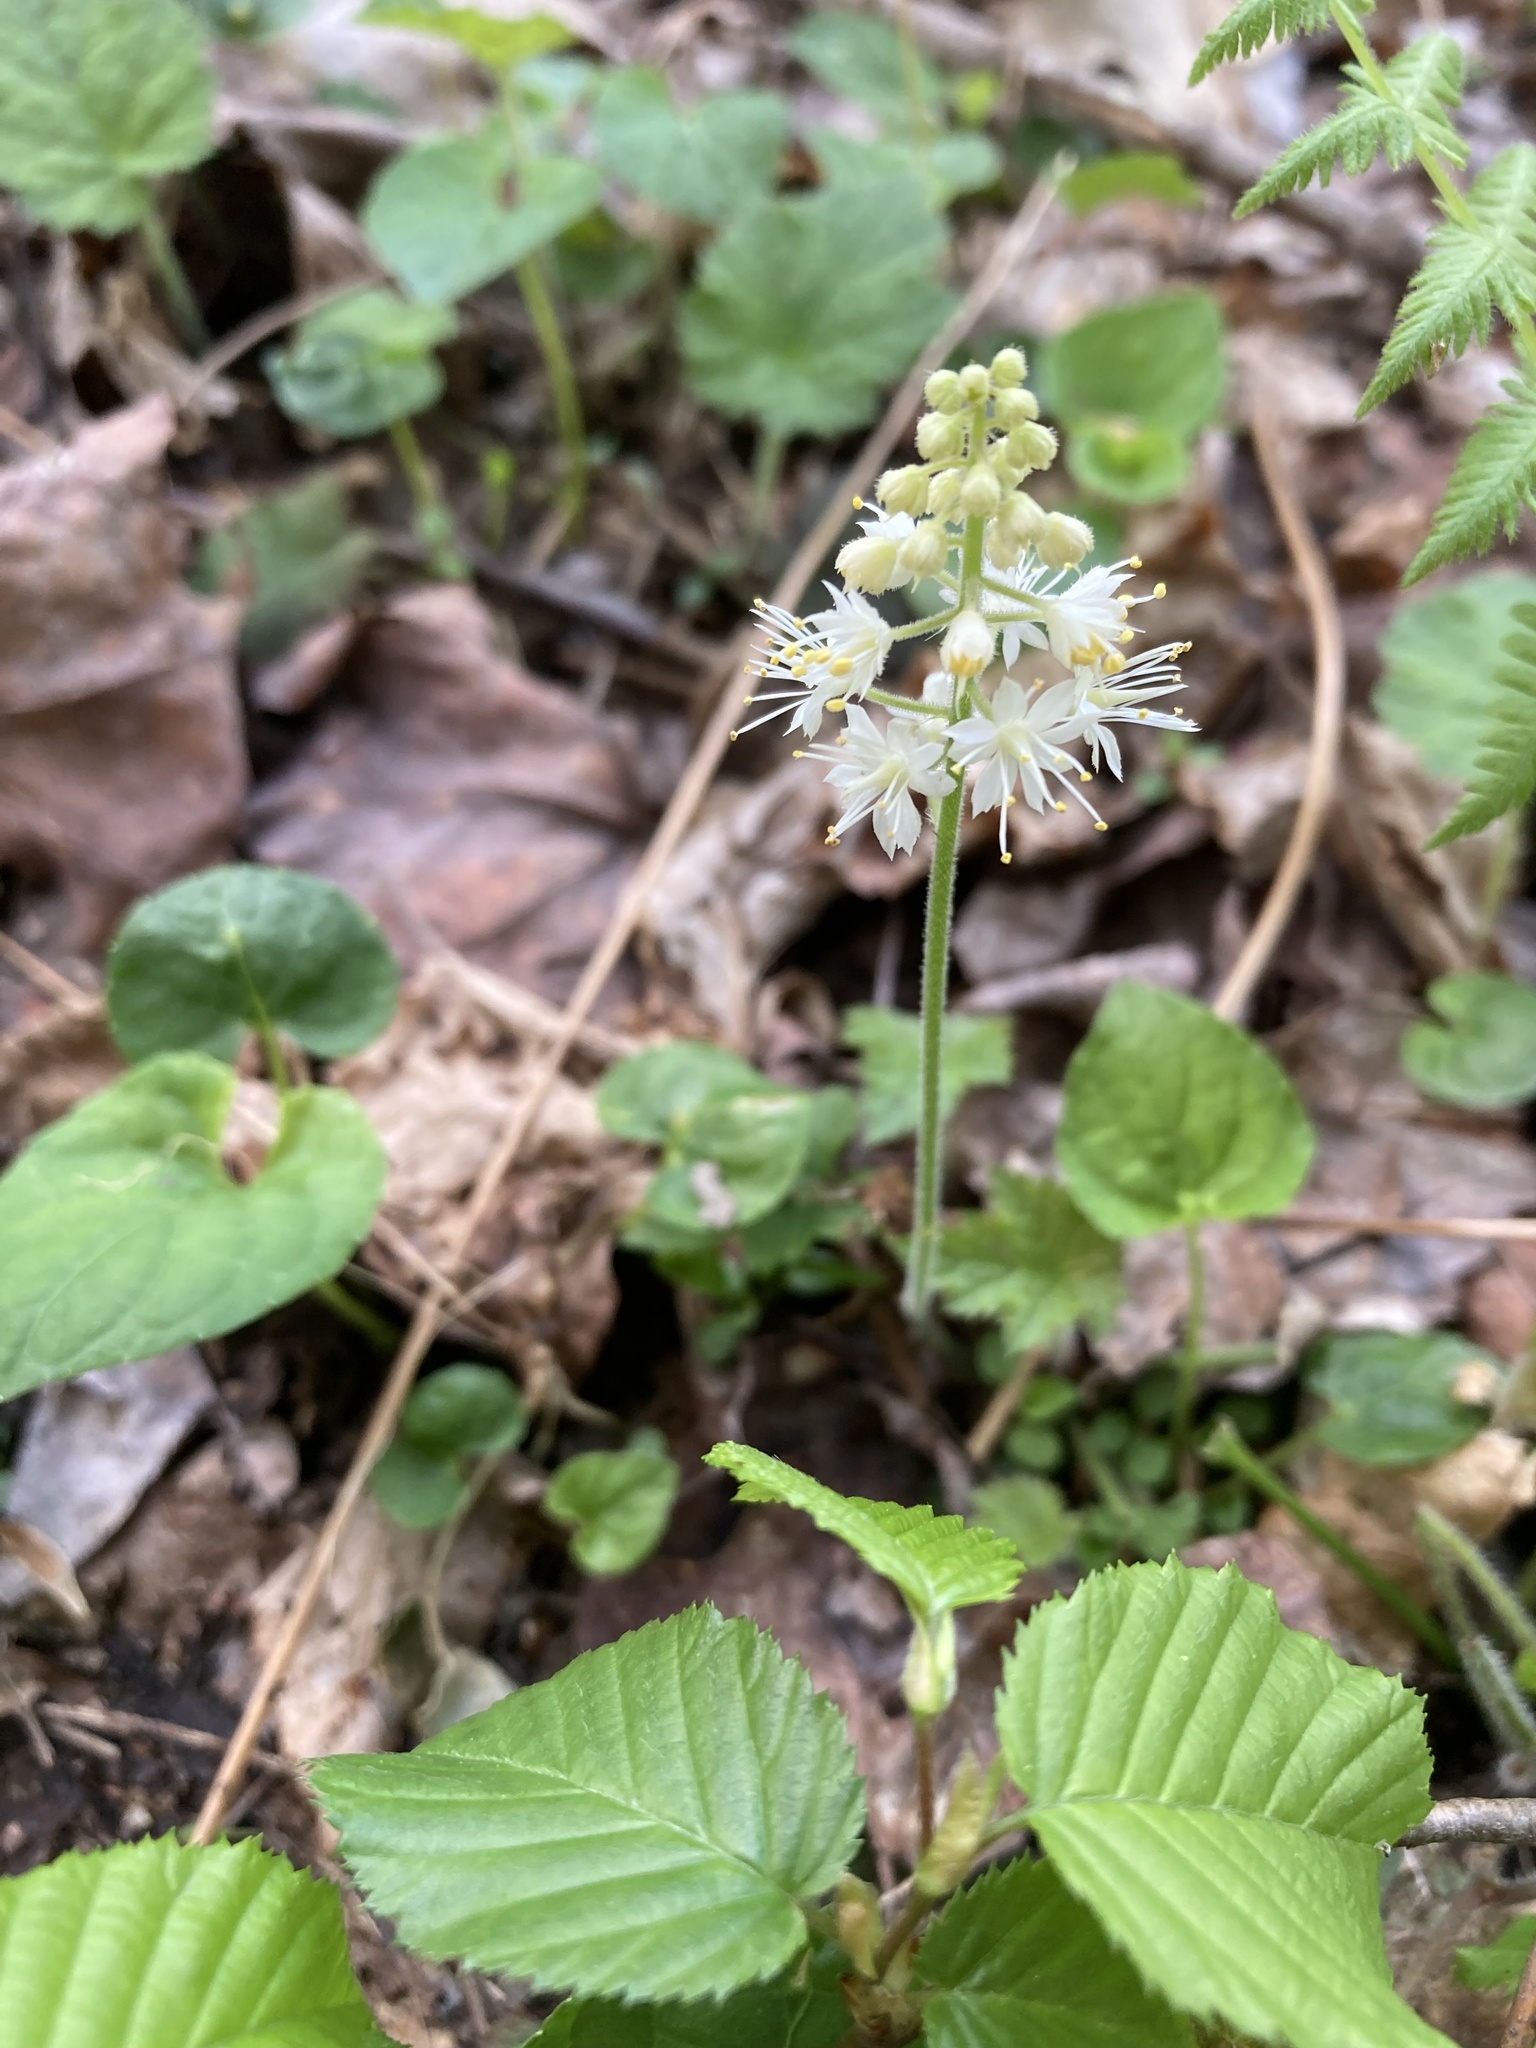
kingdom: Plantae
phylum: Tracheophyta
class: Magnoliopsida
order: Saxifragales
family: Saxifragaceae
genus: Tiarella
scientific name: Tiarella stolonifera
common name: Stoloniferous foamflower
